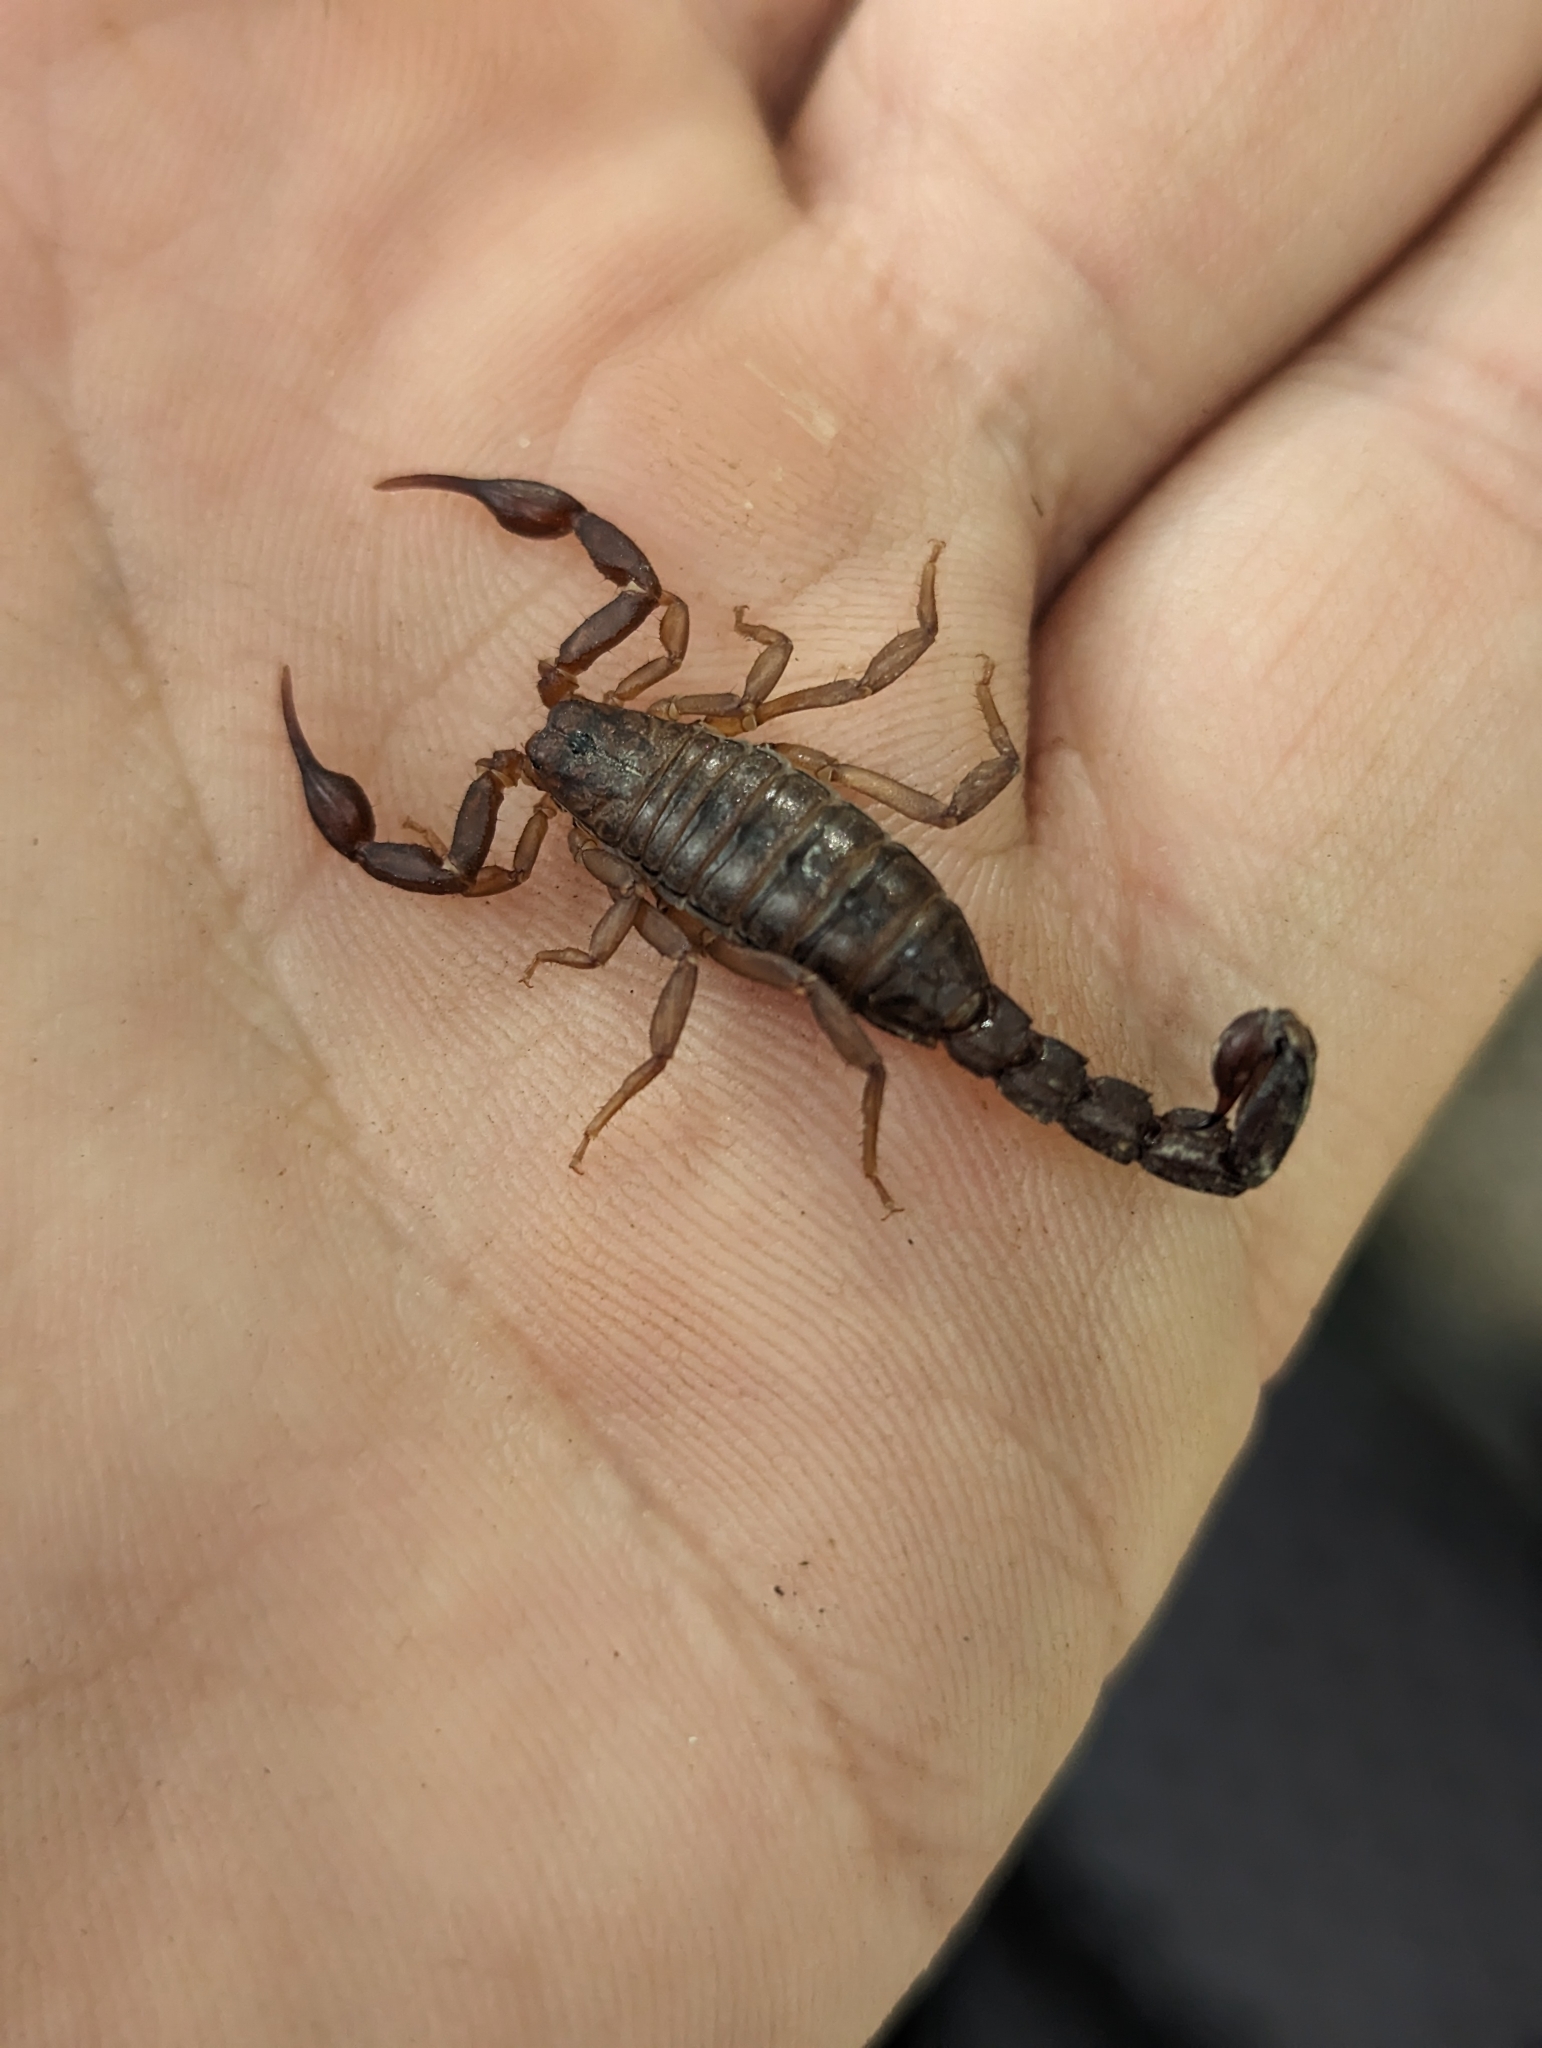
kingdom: Animalia
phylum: Arthropoda
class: Arachnida
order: Scorpiones
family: Vaejovidae
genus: Vaejovis
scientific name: Vaejovis carolinianus
